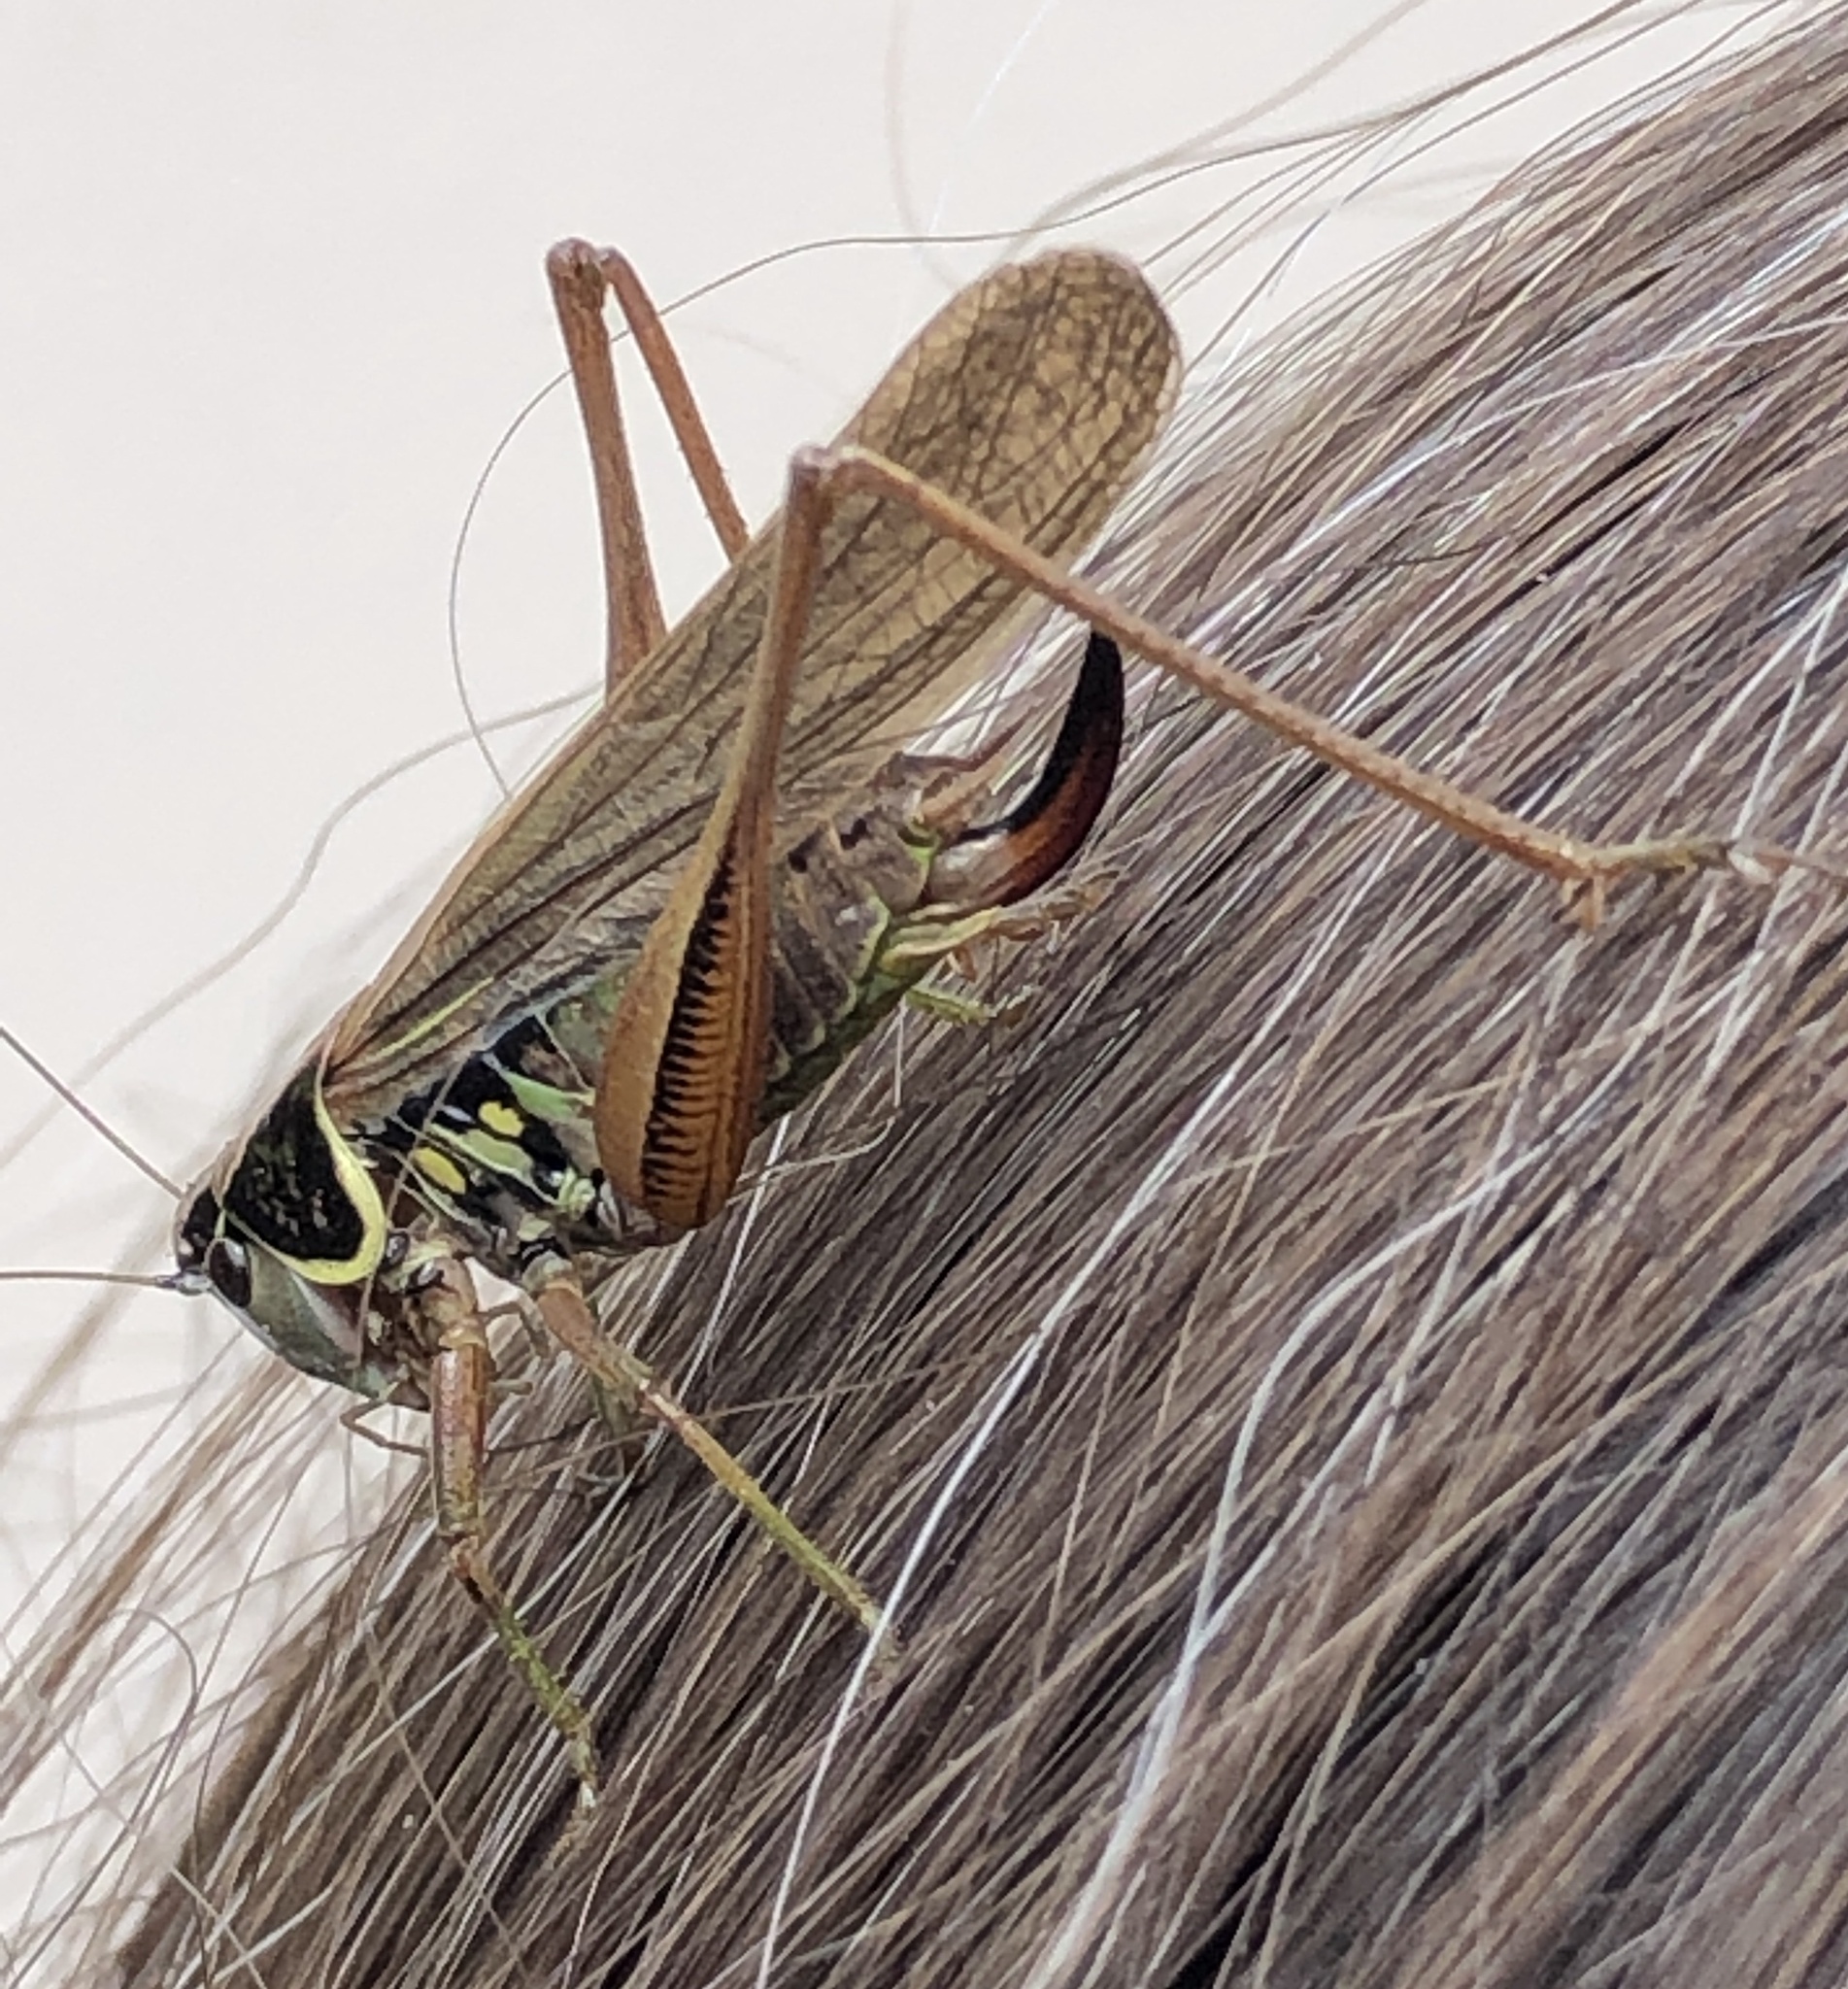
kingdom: Animalia
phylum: Arthropoda
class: Insecta
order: Orthoptera
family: Tettigoniidae
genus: Roeseliana
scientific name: Roeseliana roeselii
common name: Roesel's bush cricket
